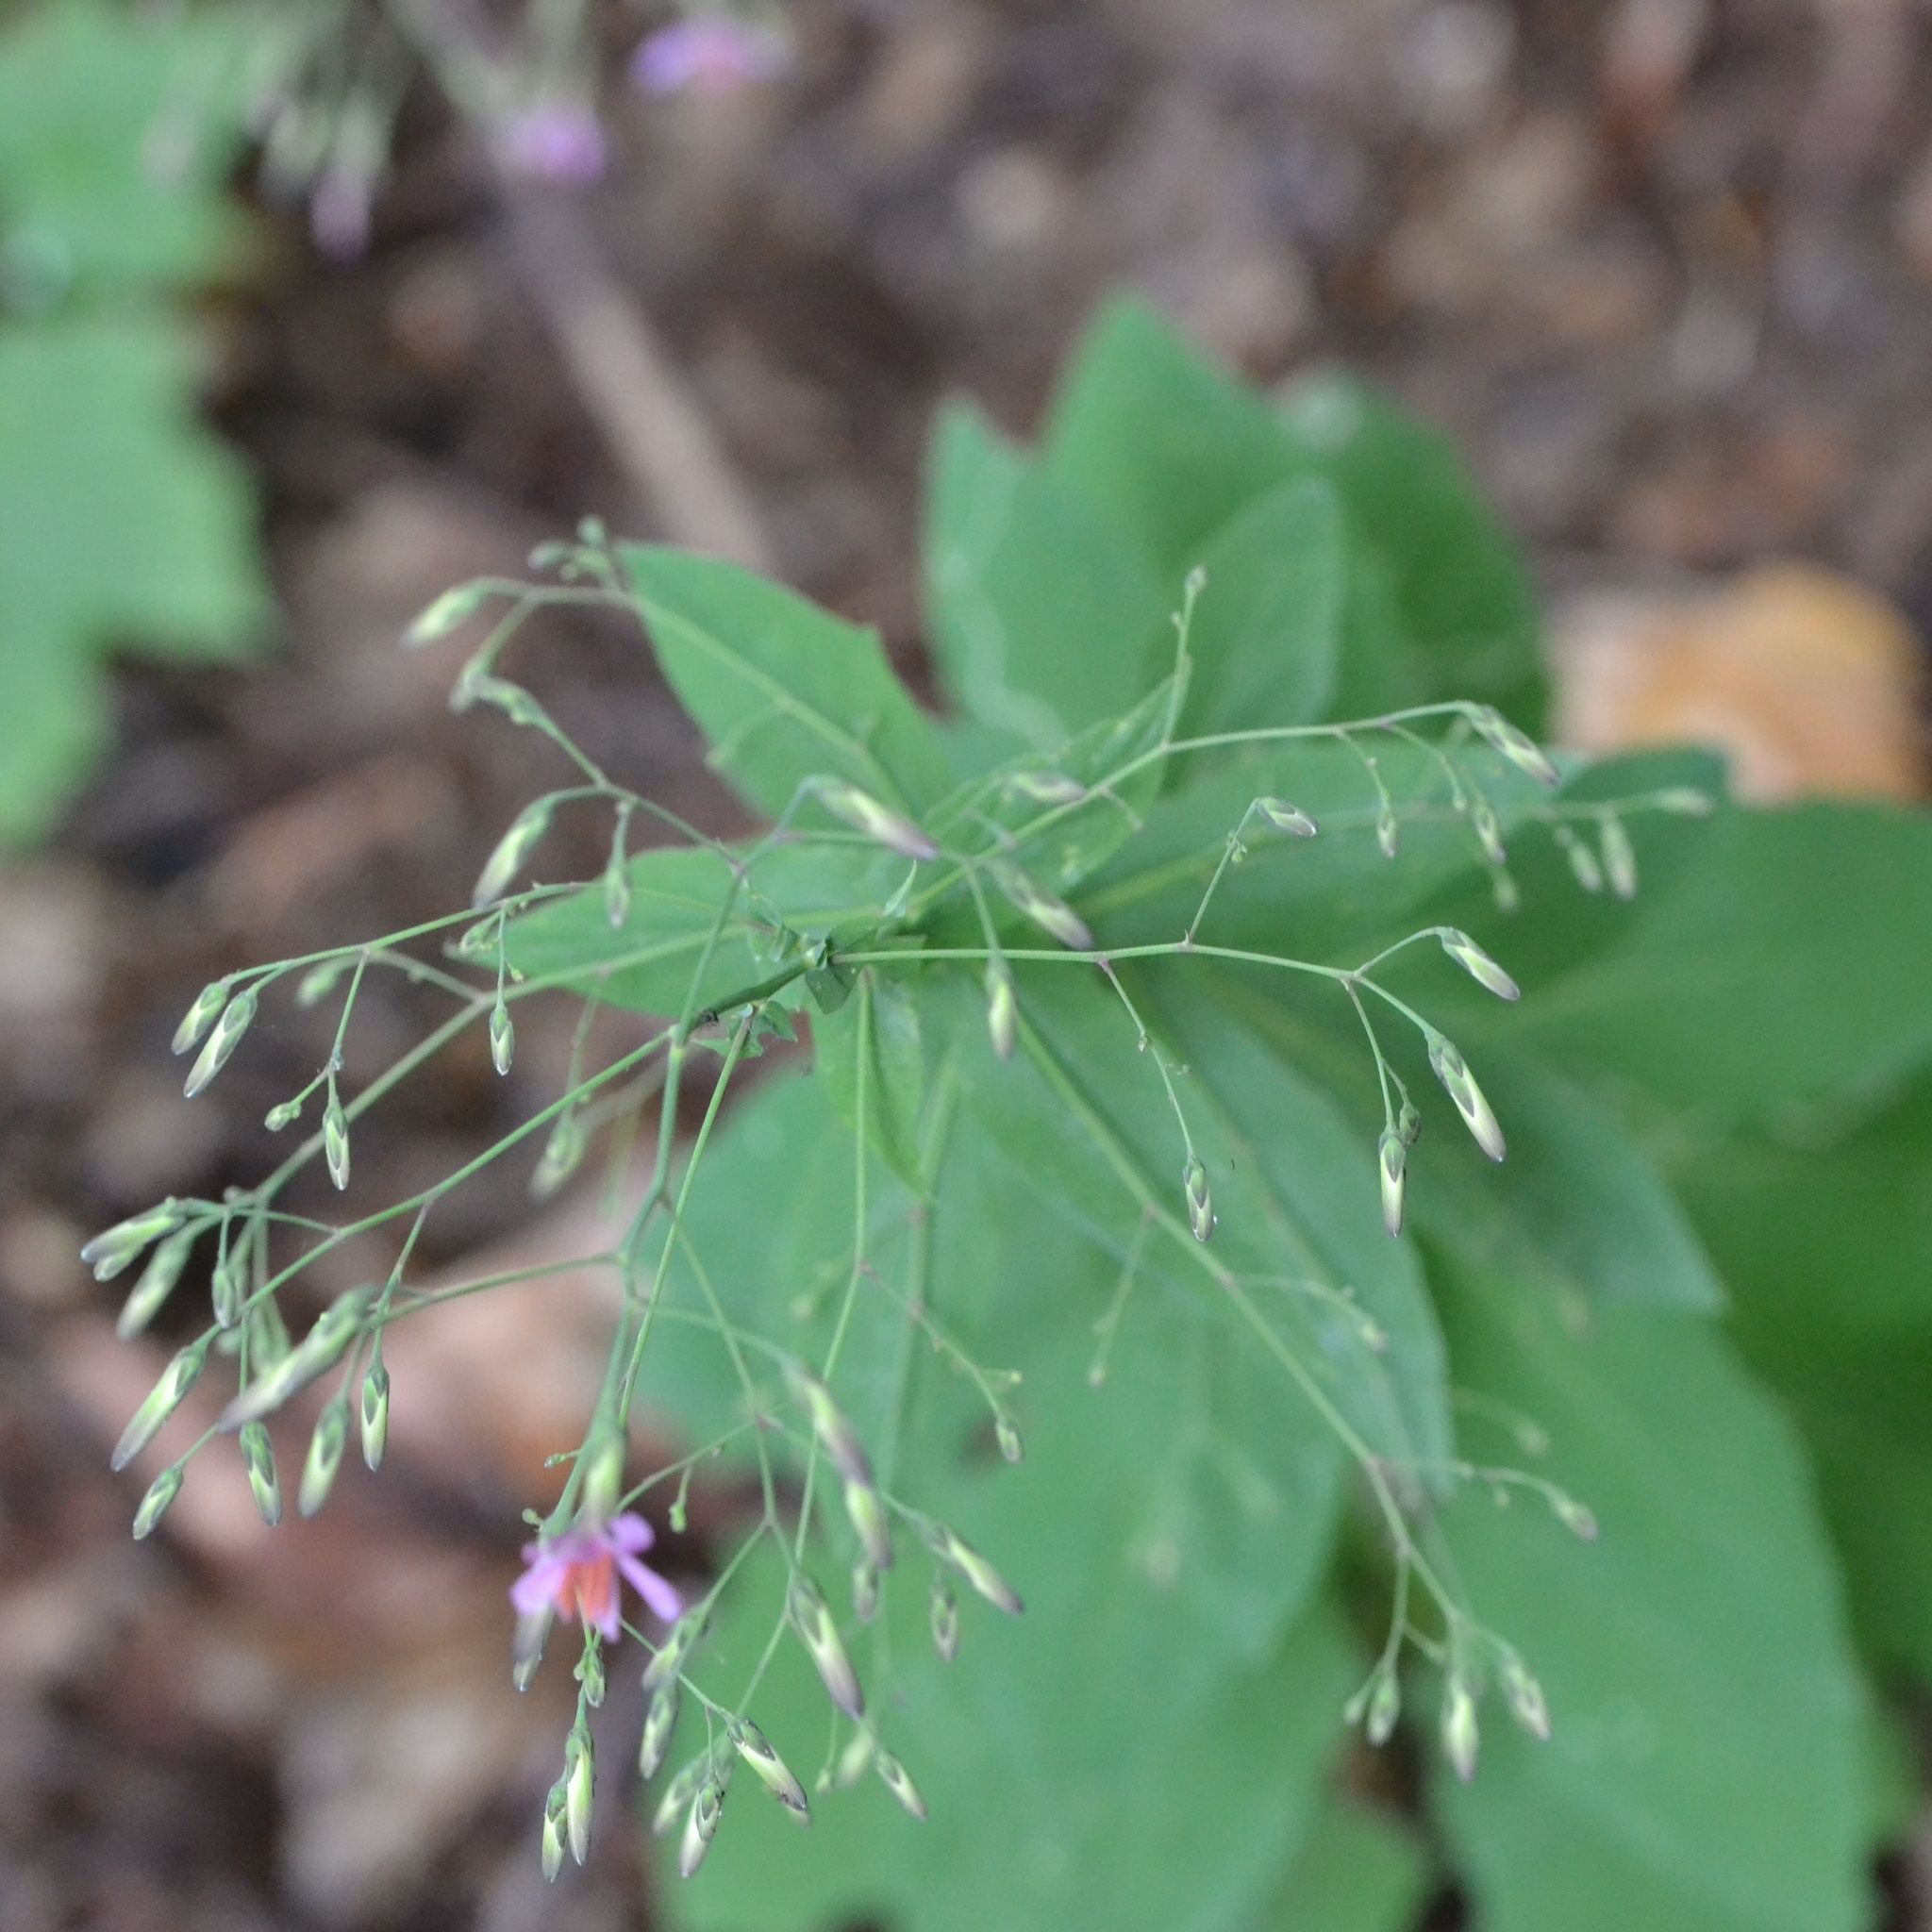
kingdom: Plantae
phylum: Tracheophyta
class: Magnoliopsida
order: Asterales
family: Asteraceae
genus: Prenanthes
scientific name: Prenanthes purpurea
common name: Purple lettuce
